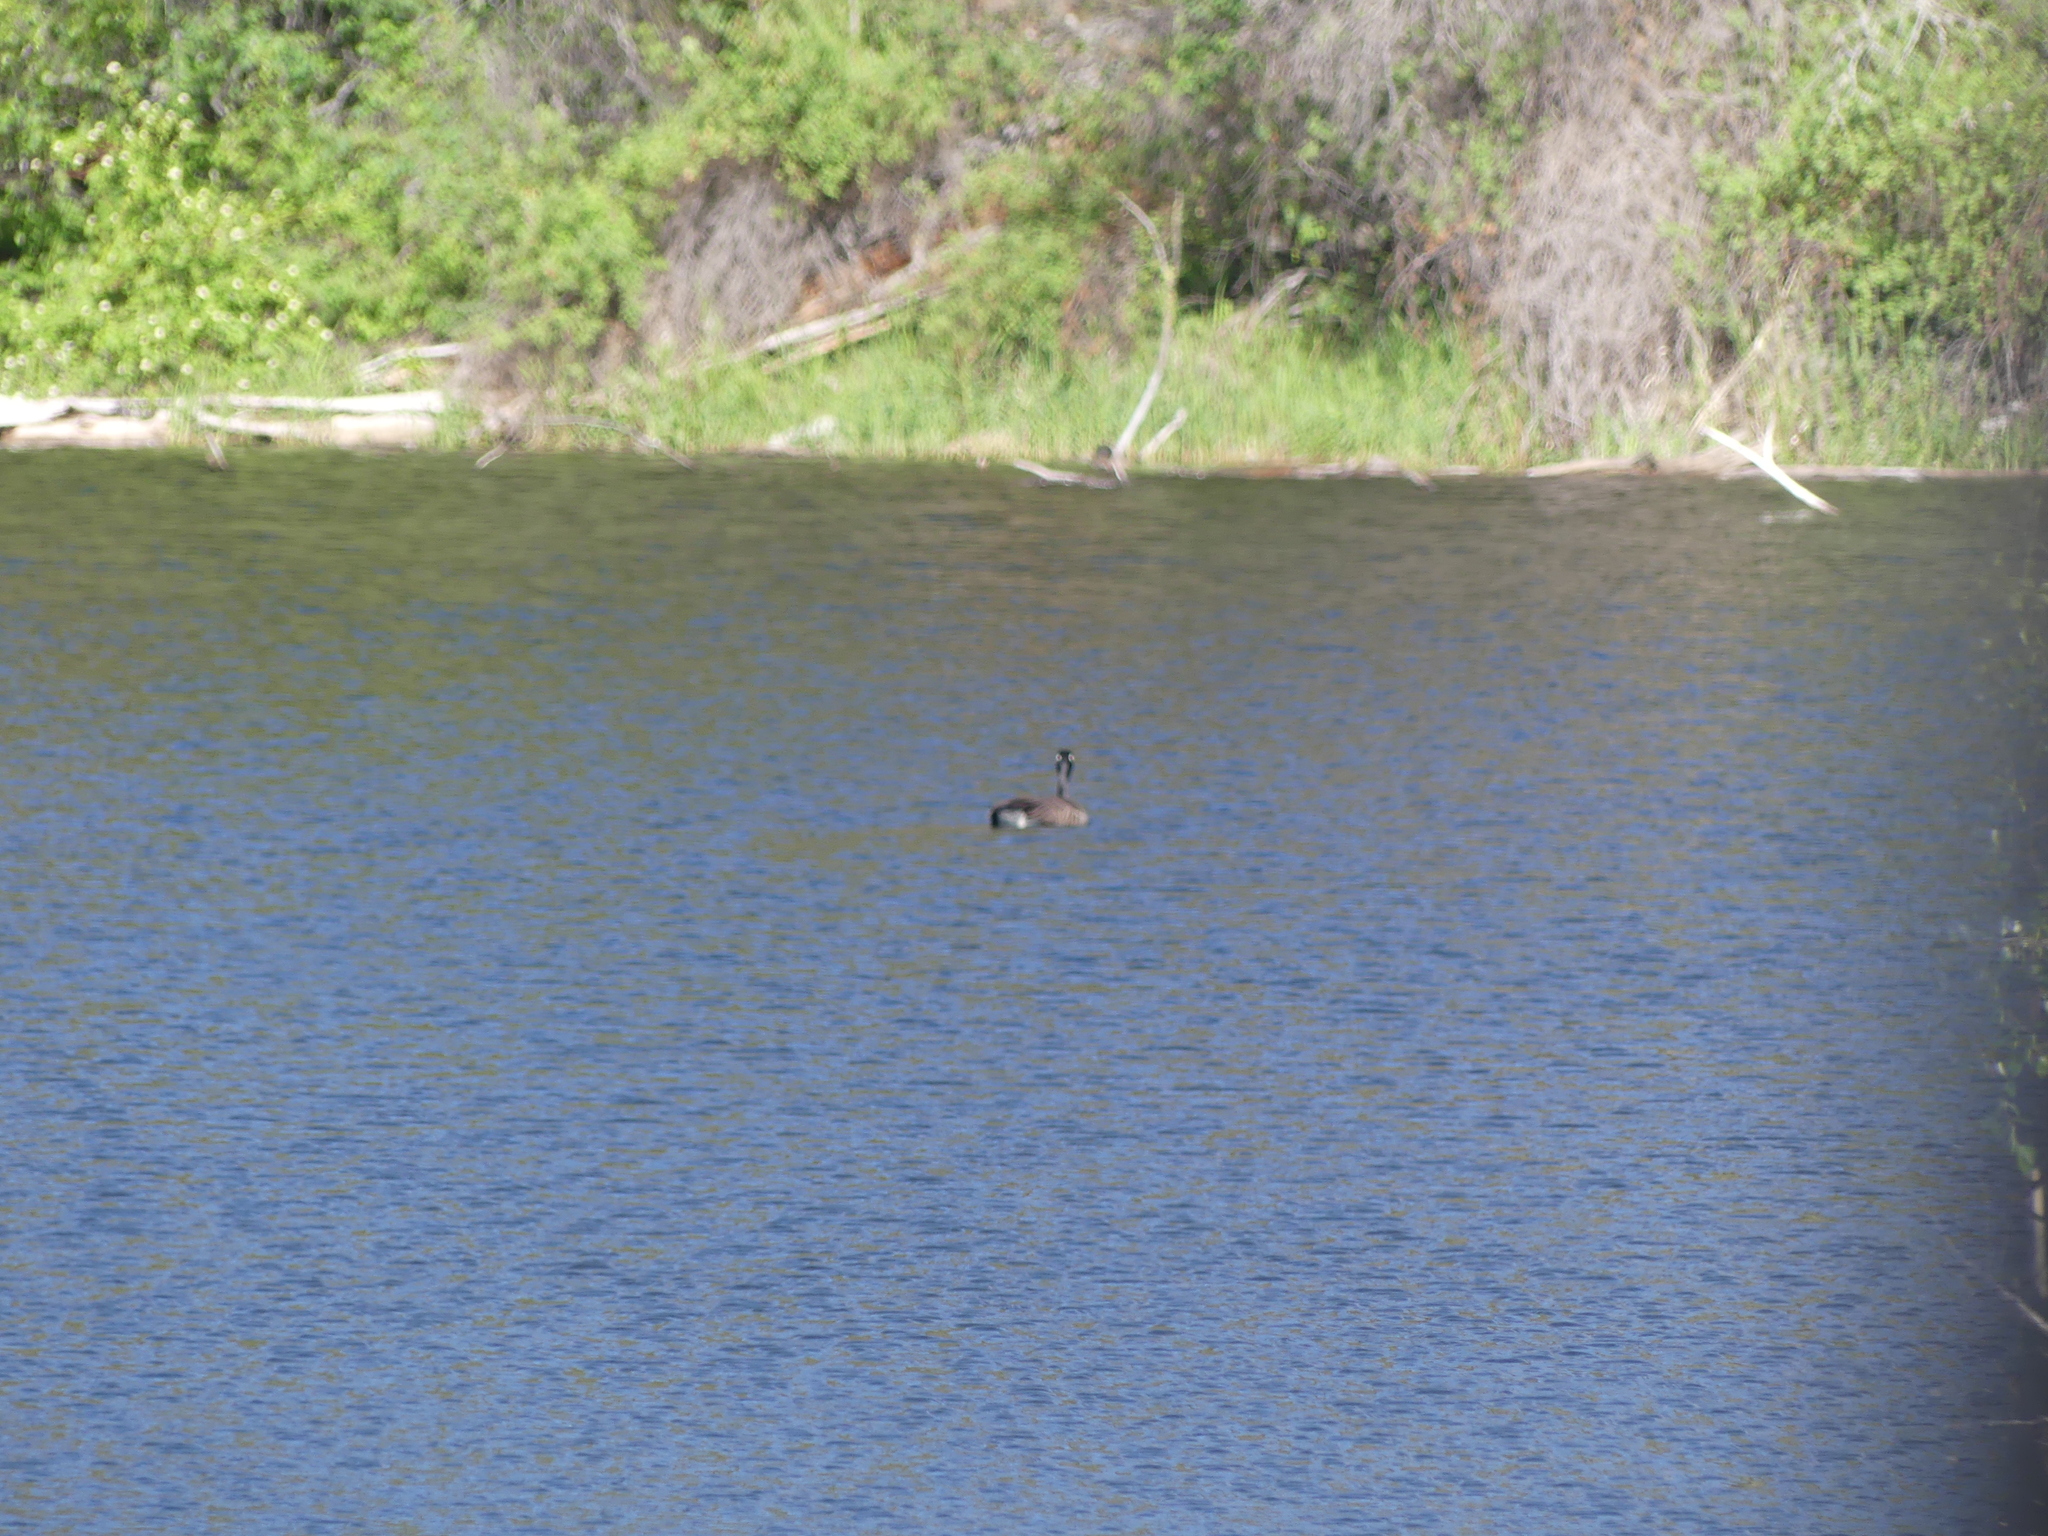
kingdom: Animalia
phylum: Chordata
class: Aves
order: Anseriformes
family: Anatidae
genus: Branta
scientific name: Branta canadensis
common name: Canada goose
